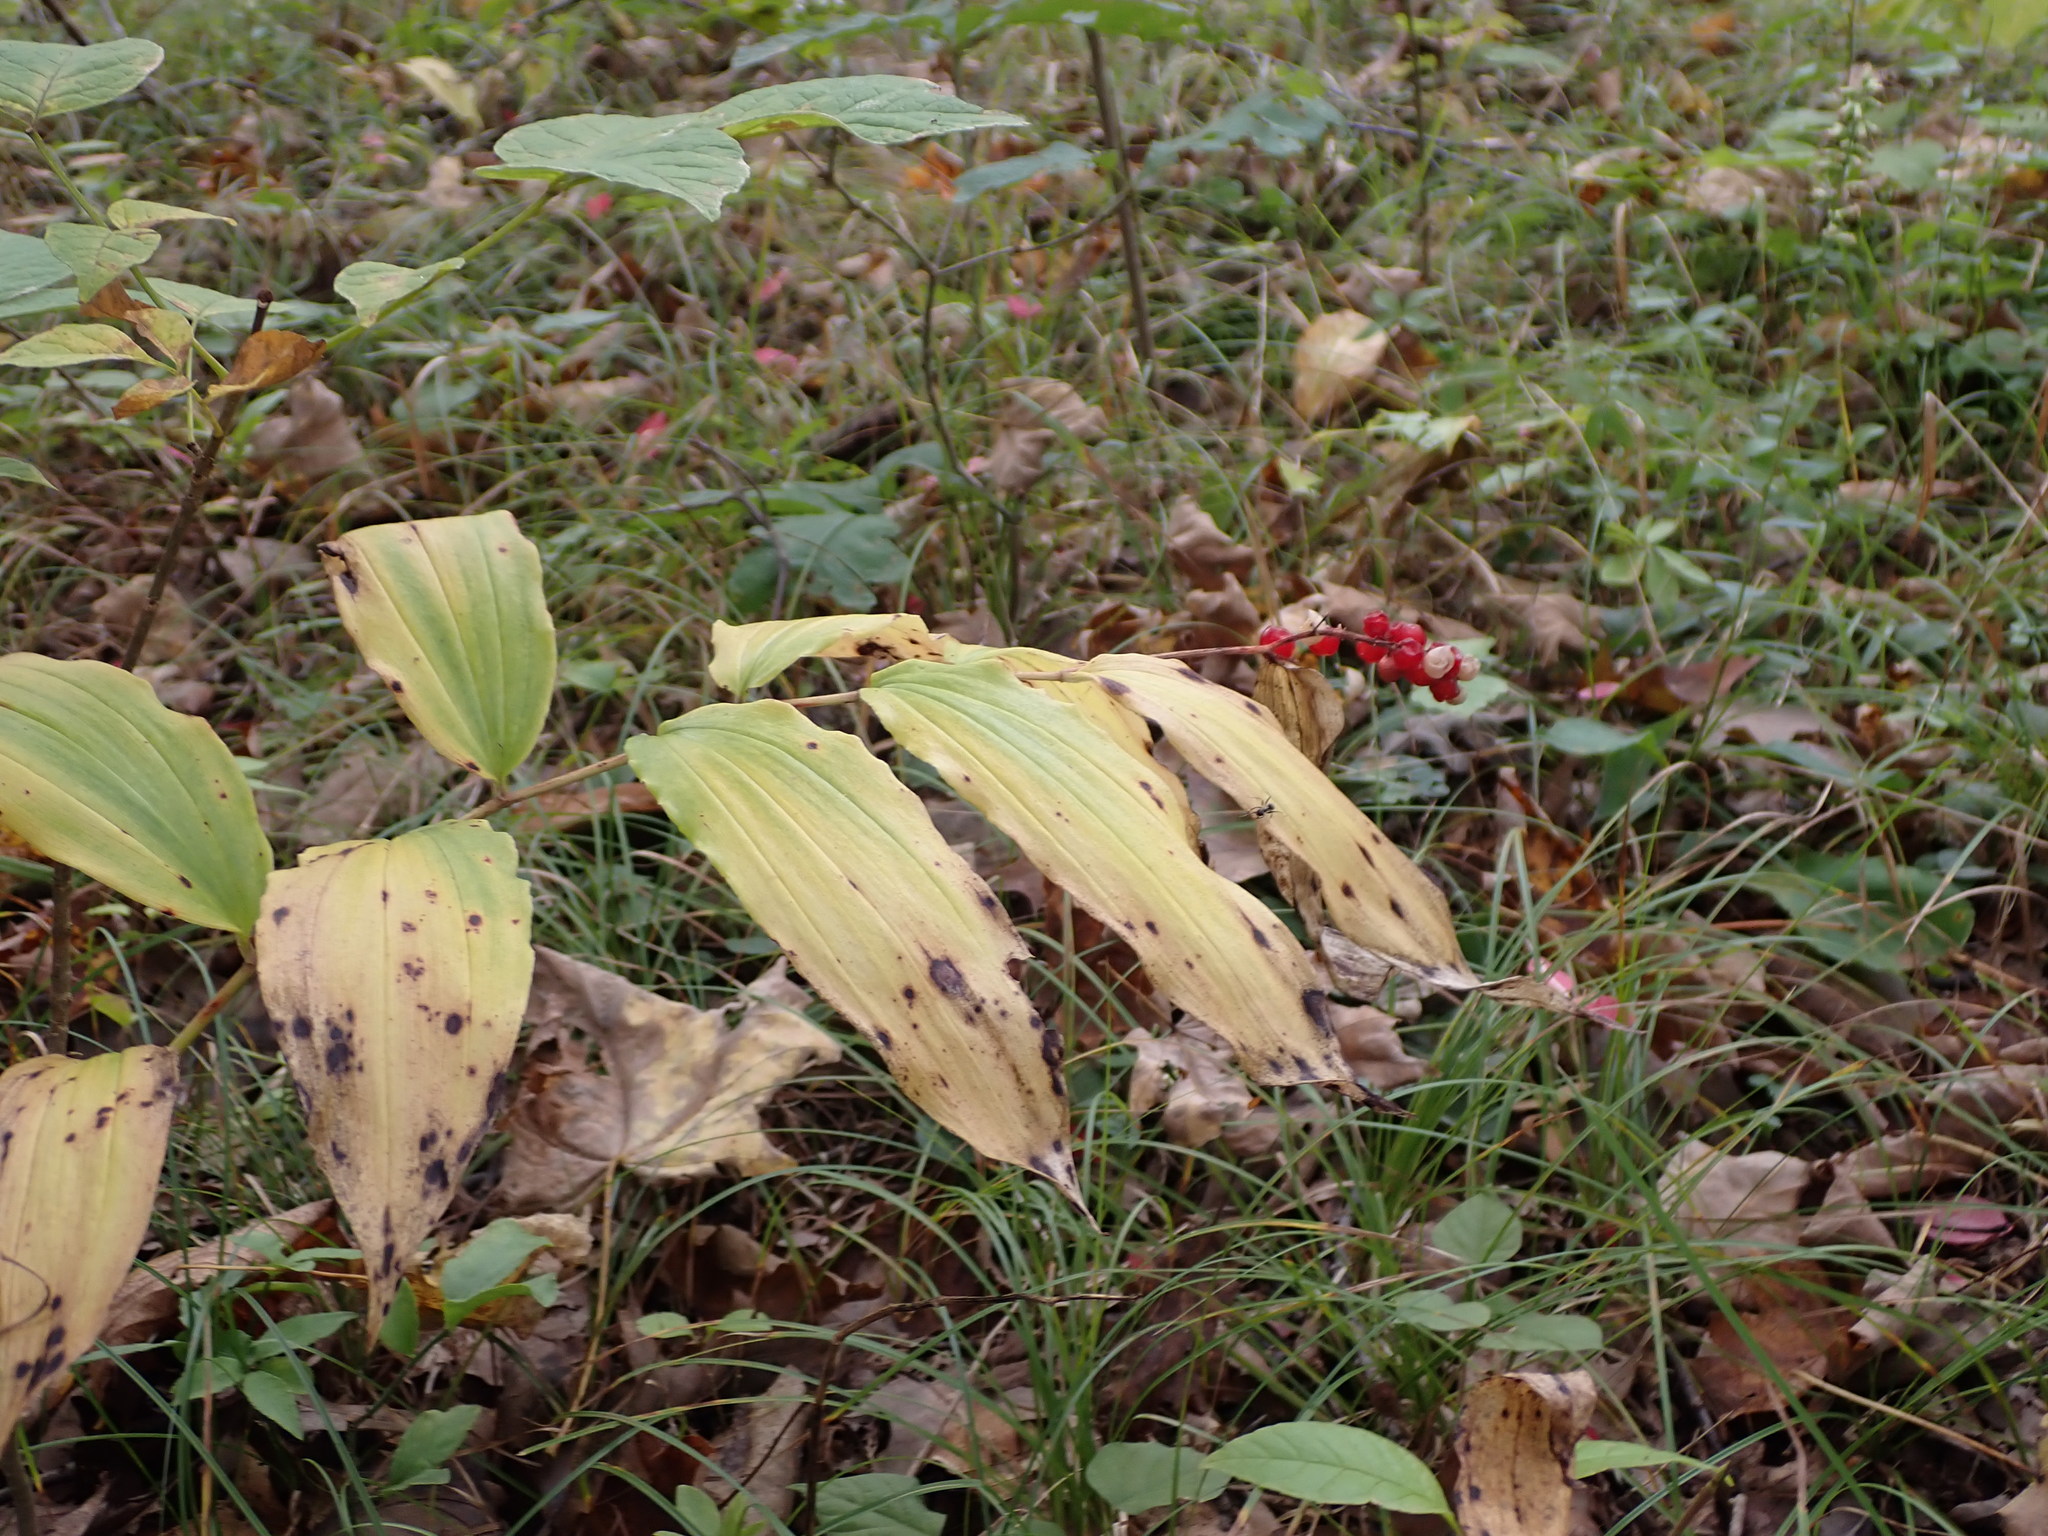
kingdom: Plantae
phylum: Tracheophyta
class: Liliopsida
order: Asparagales
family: Asparagaceae
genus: Maianthemum
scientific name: Maianthemum racemosum
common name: False spikenard
